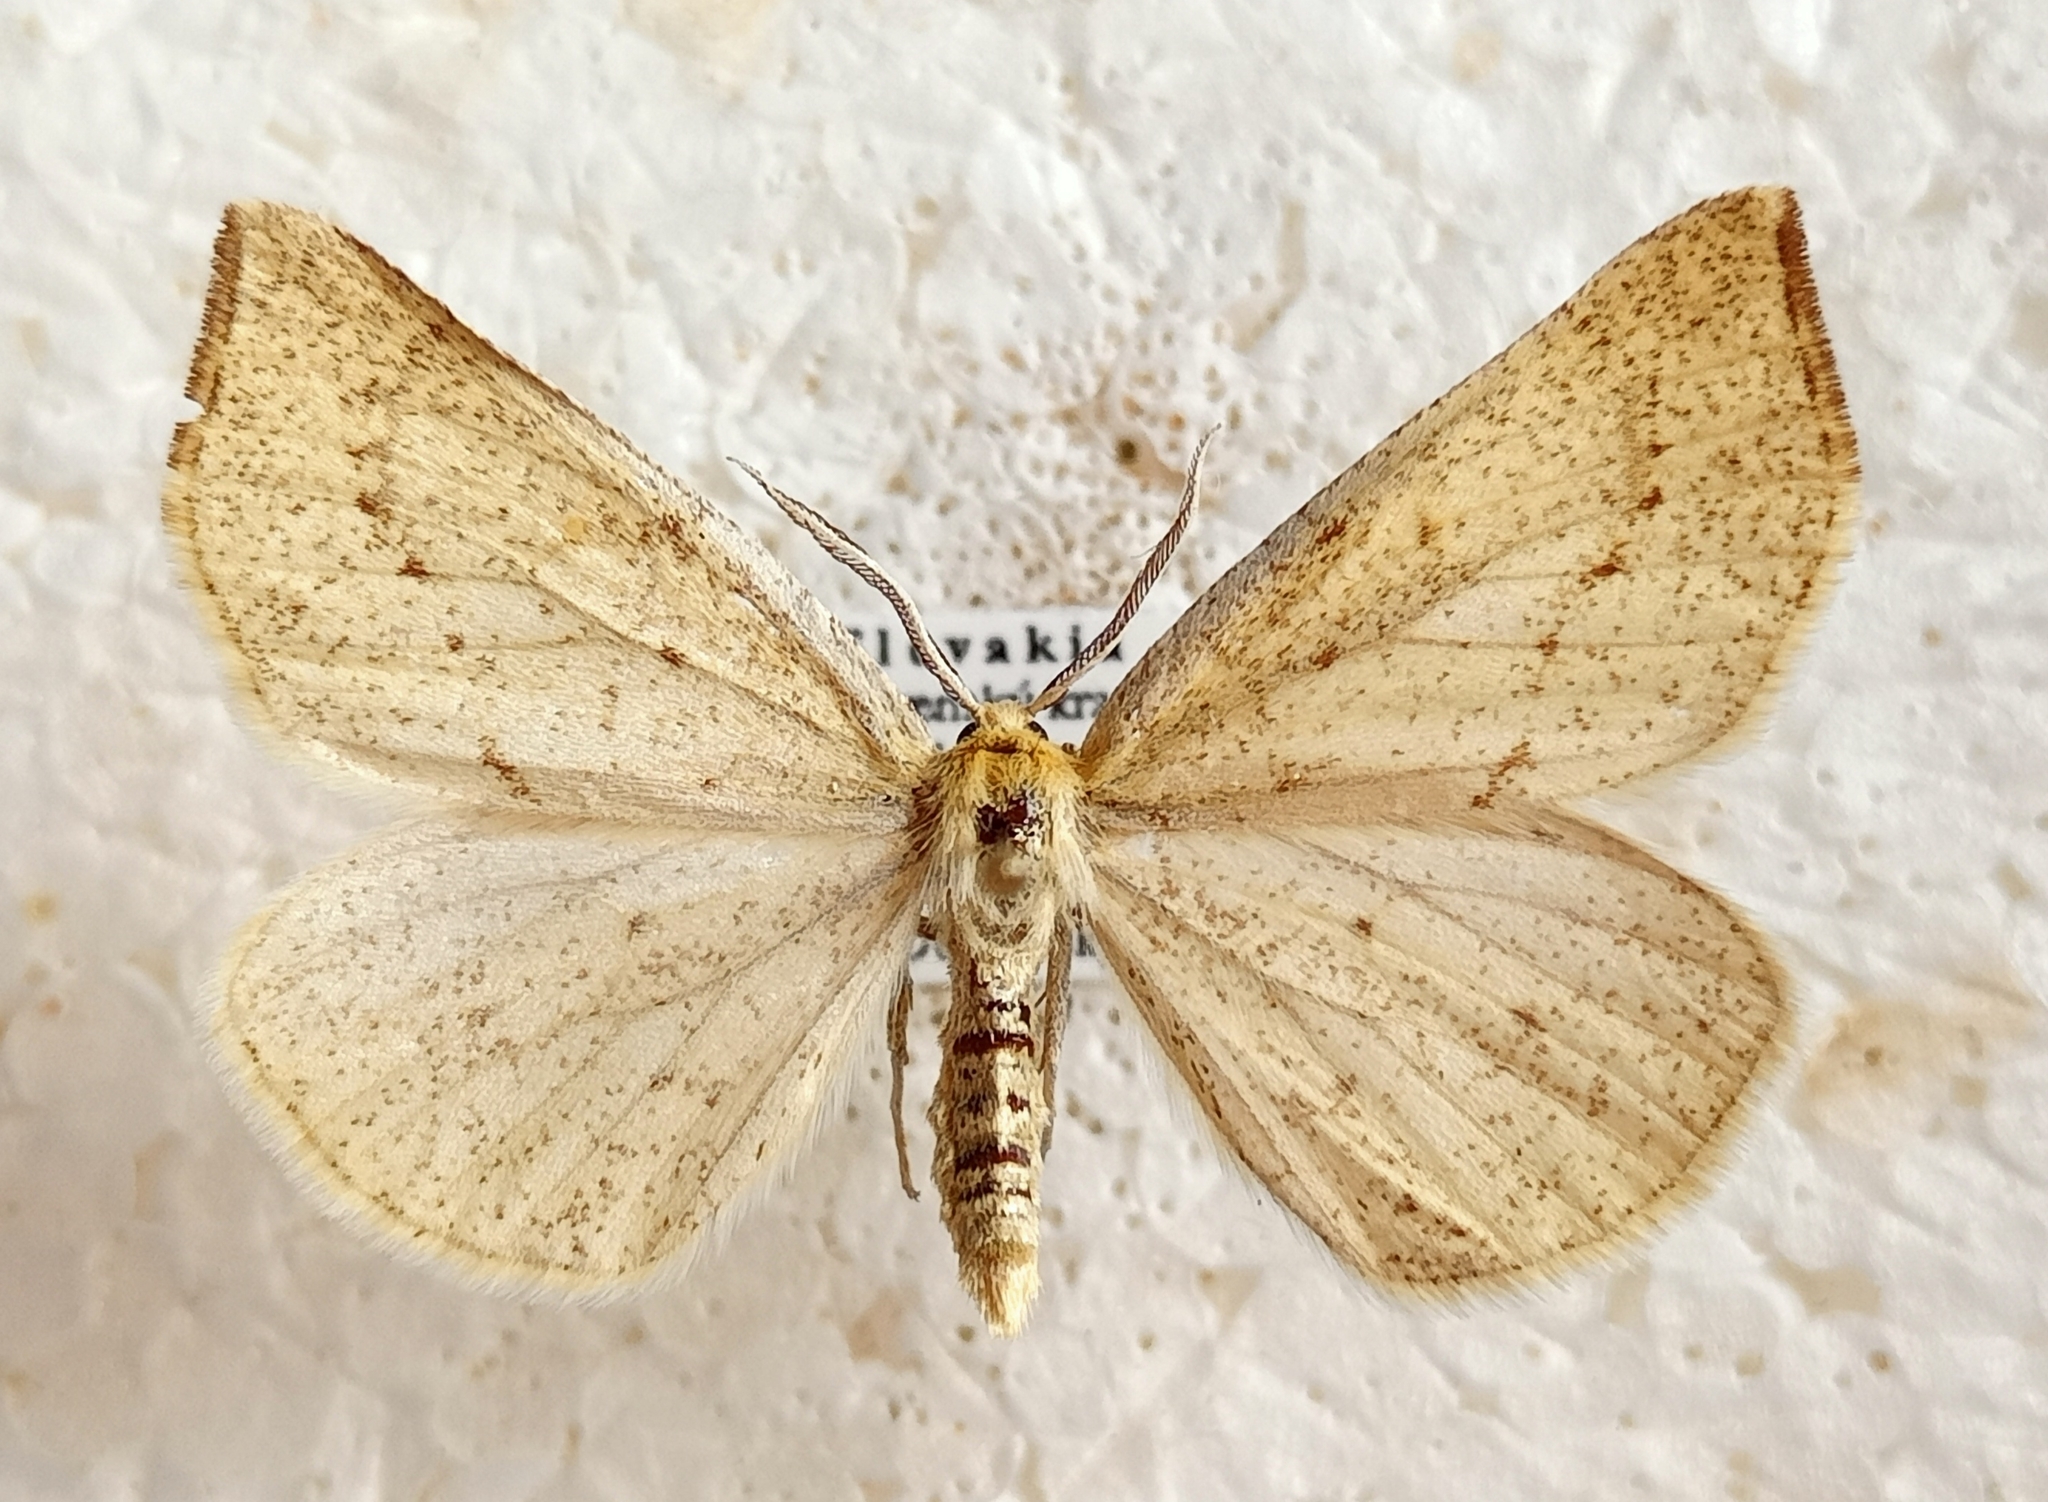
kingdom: Animalia
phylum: Arthropoda
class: Insecta
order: Lepidoptera
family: Geometridae
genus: Hypoxystis
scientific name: Hypoxystis pluviaria
